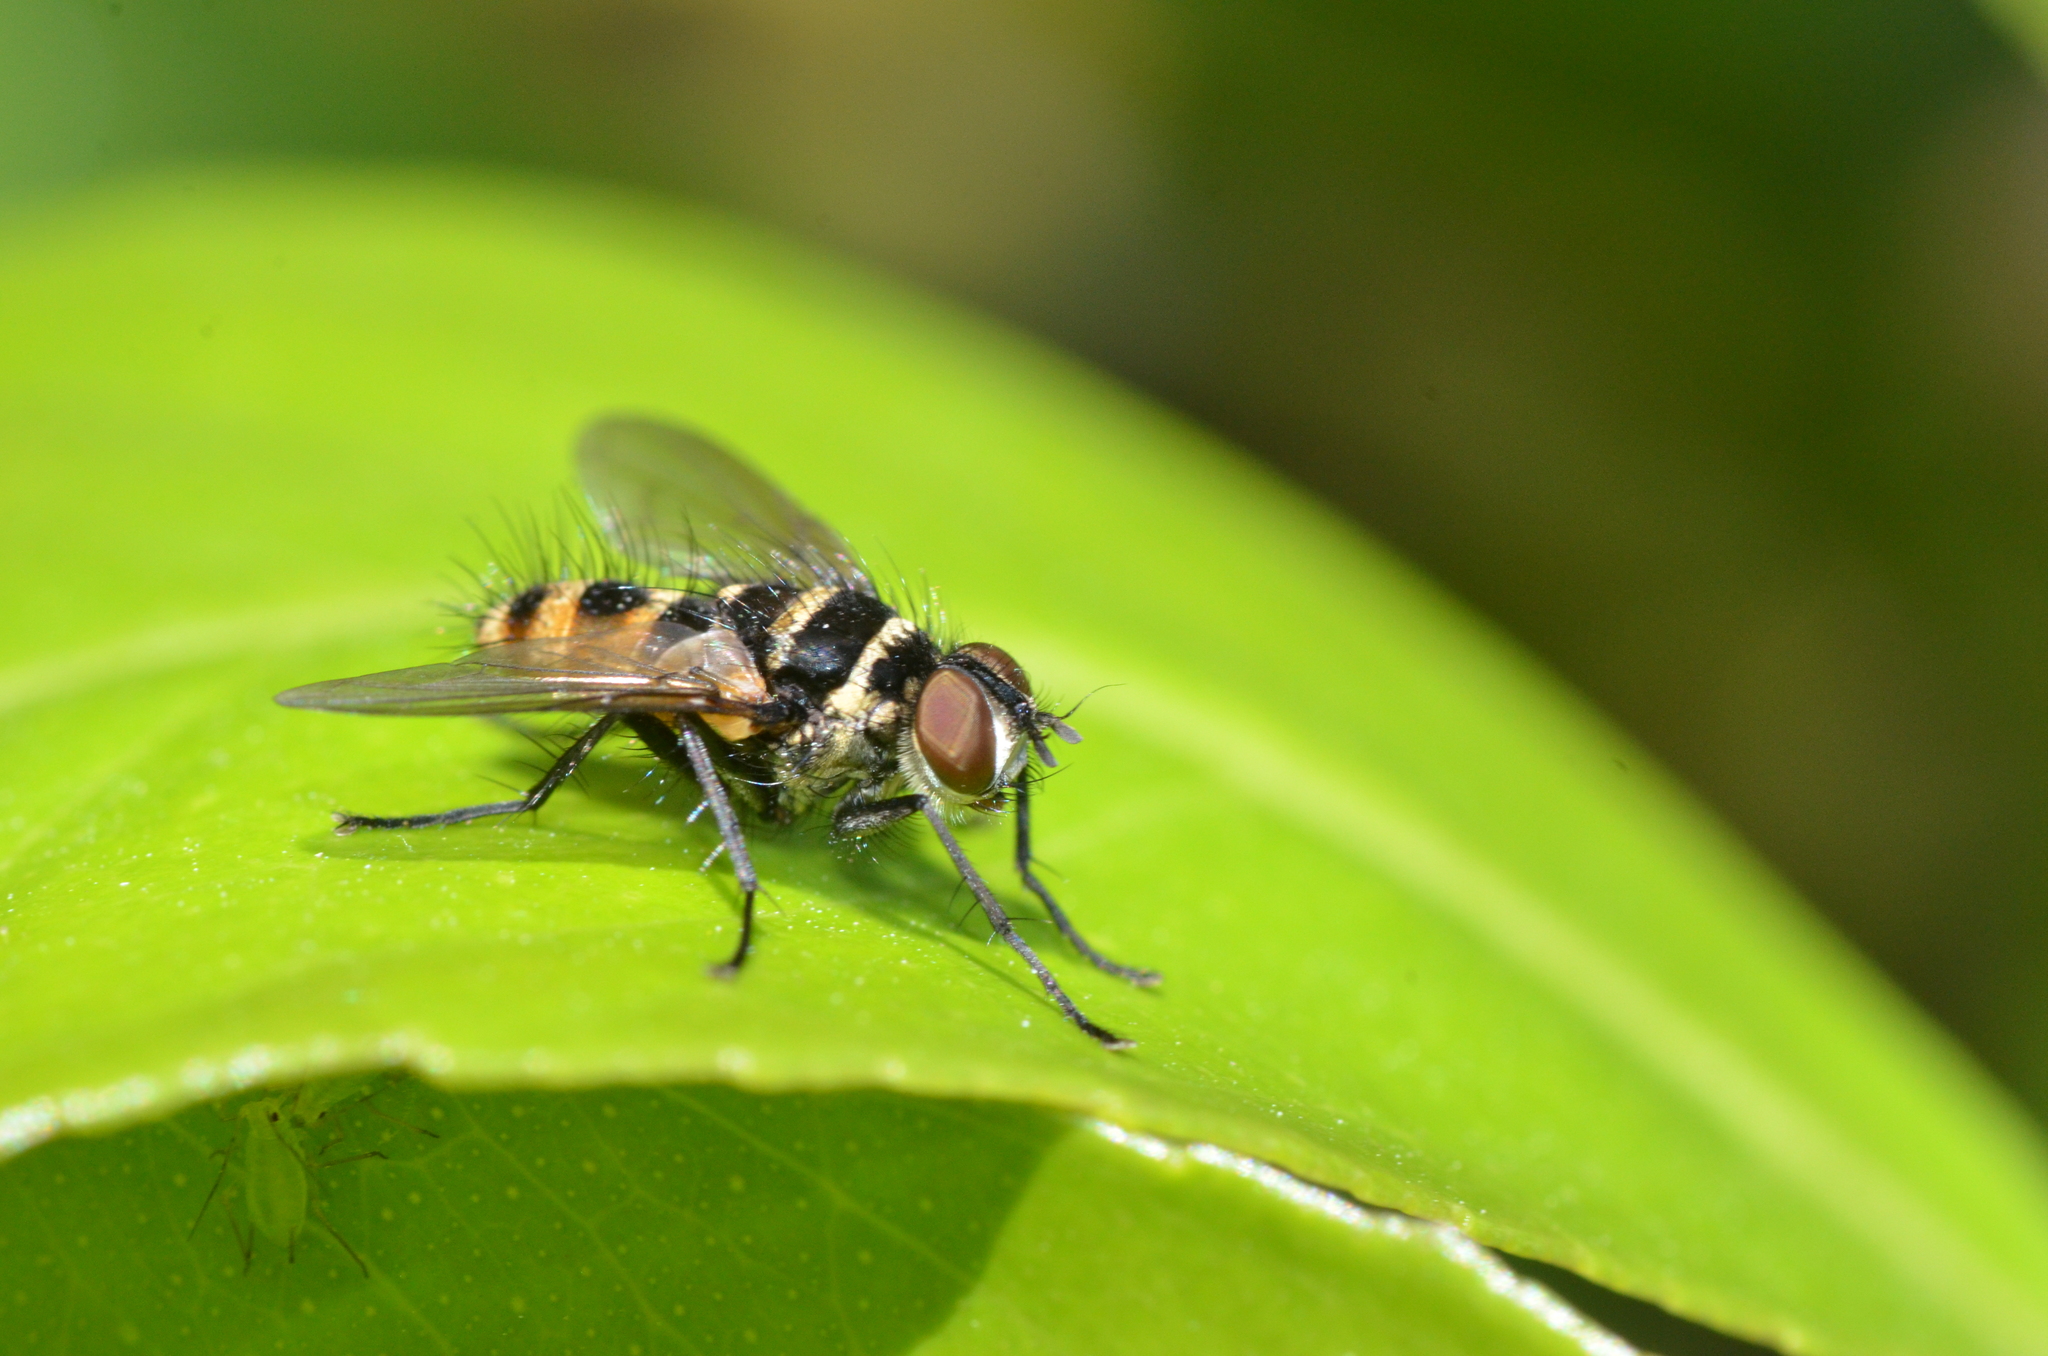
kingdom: Animalia
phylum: Arthropoda
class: Insecta
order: Diptera
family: Tachinidae
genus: Trigonospila
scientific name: Trigonospila brevifacies
